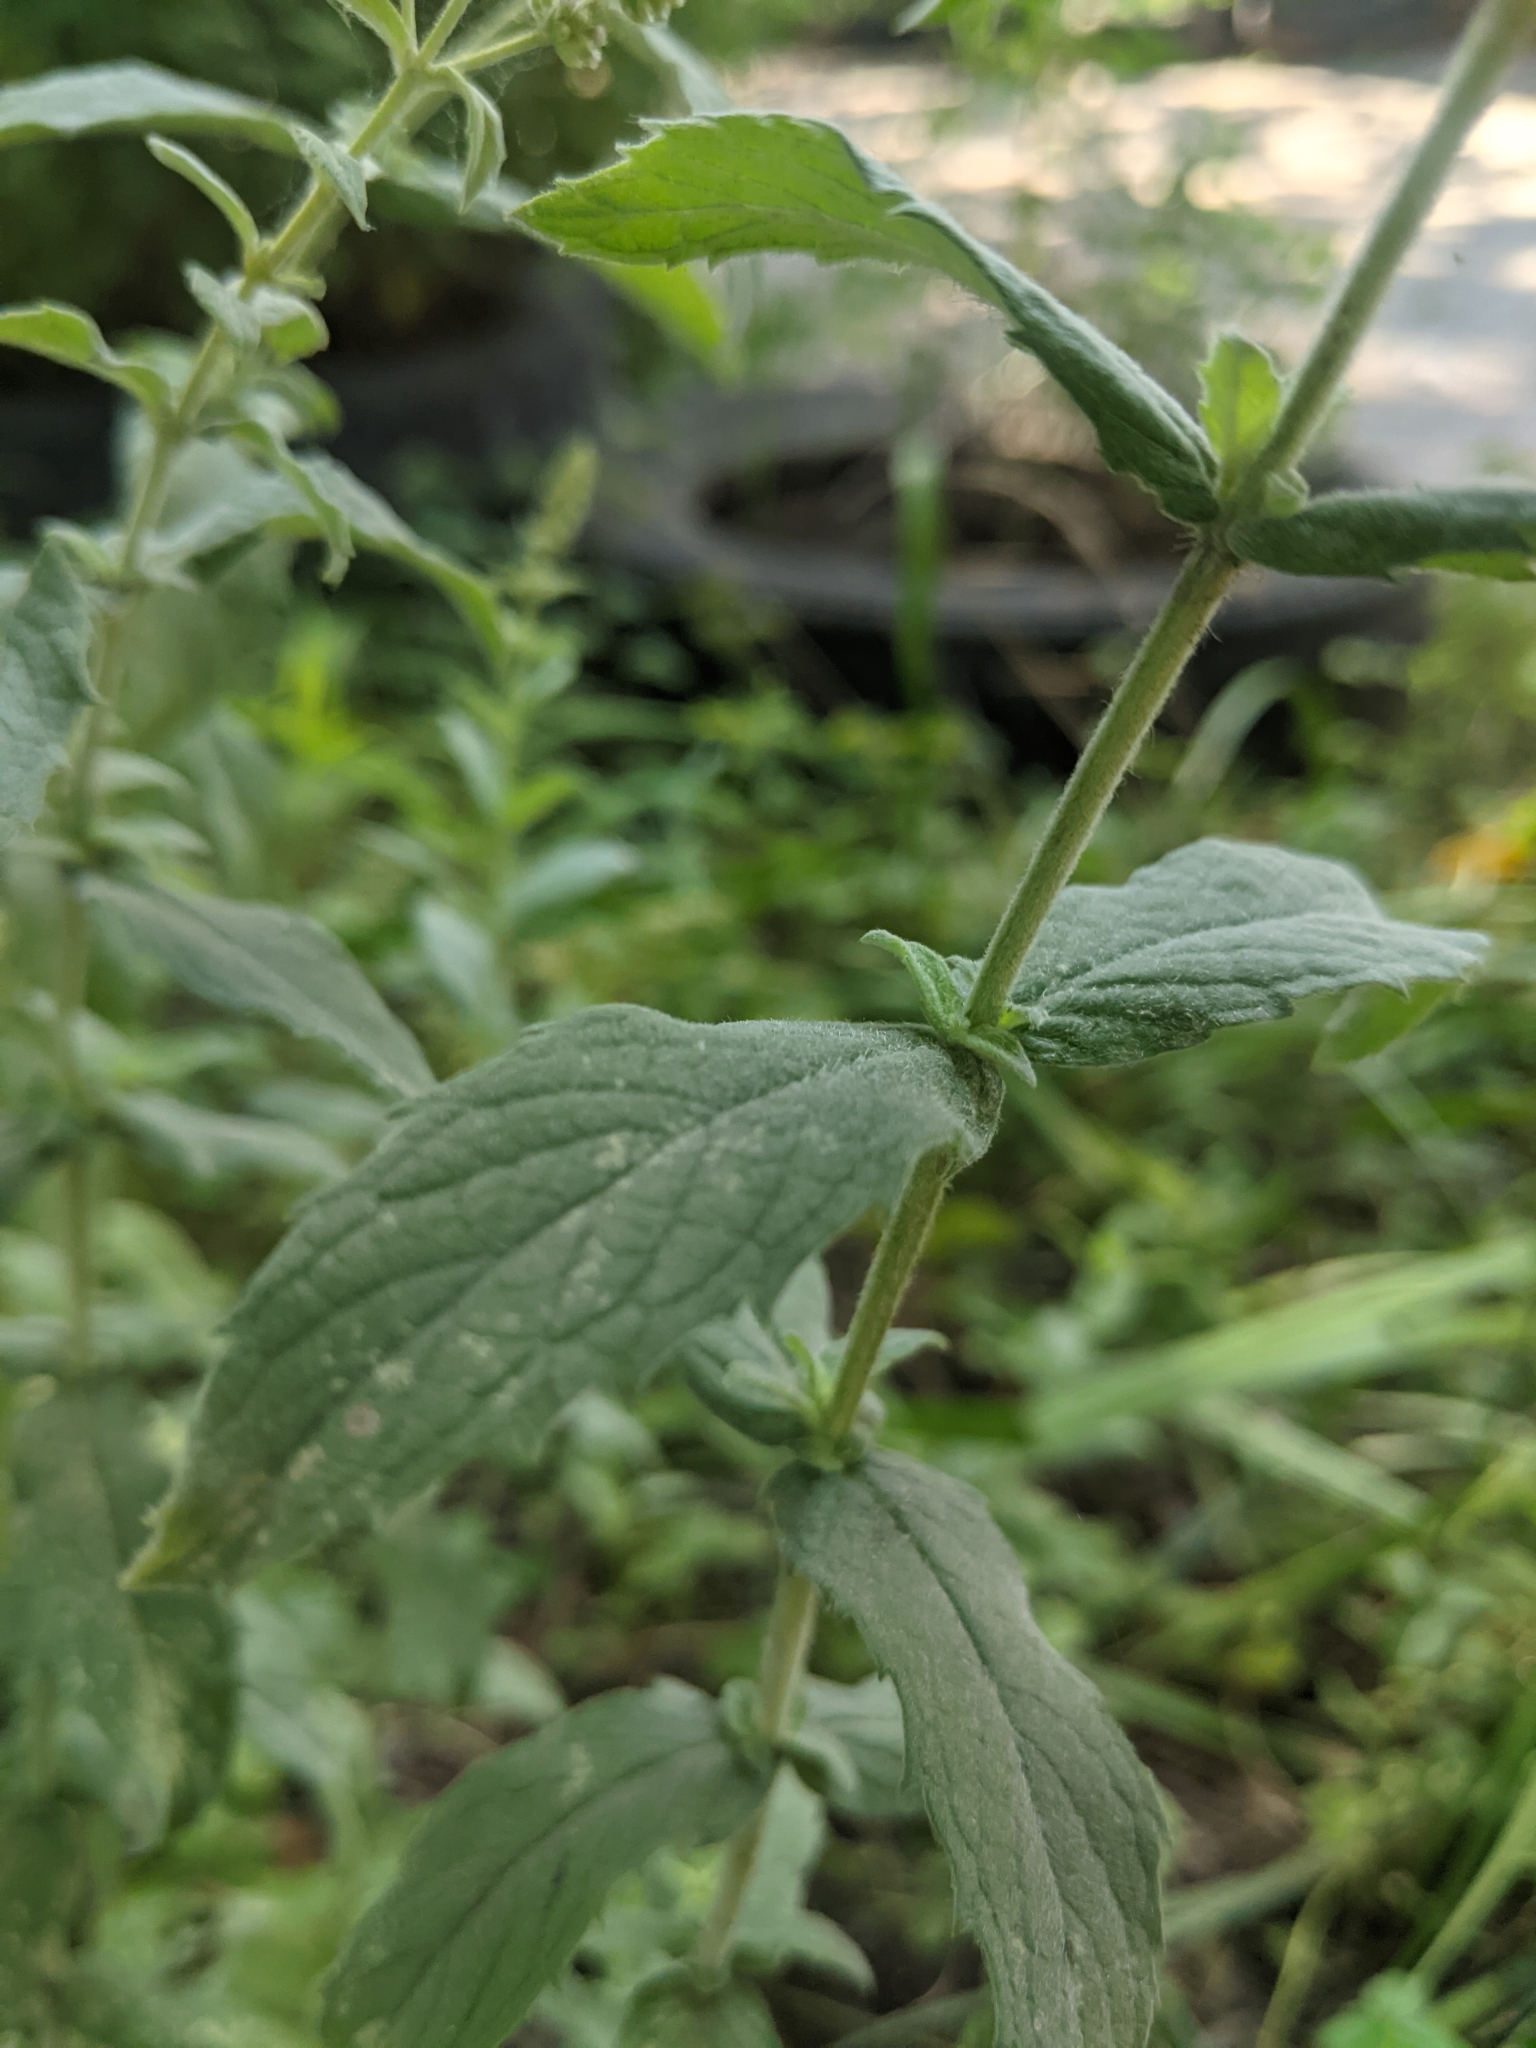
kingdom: Plantae
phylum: Tracheophyta
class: Magnoliopsida
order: Lamiales
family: Lamiaceae
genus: Mentha
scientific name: Mentha longifolia
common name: Horse mint
